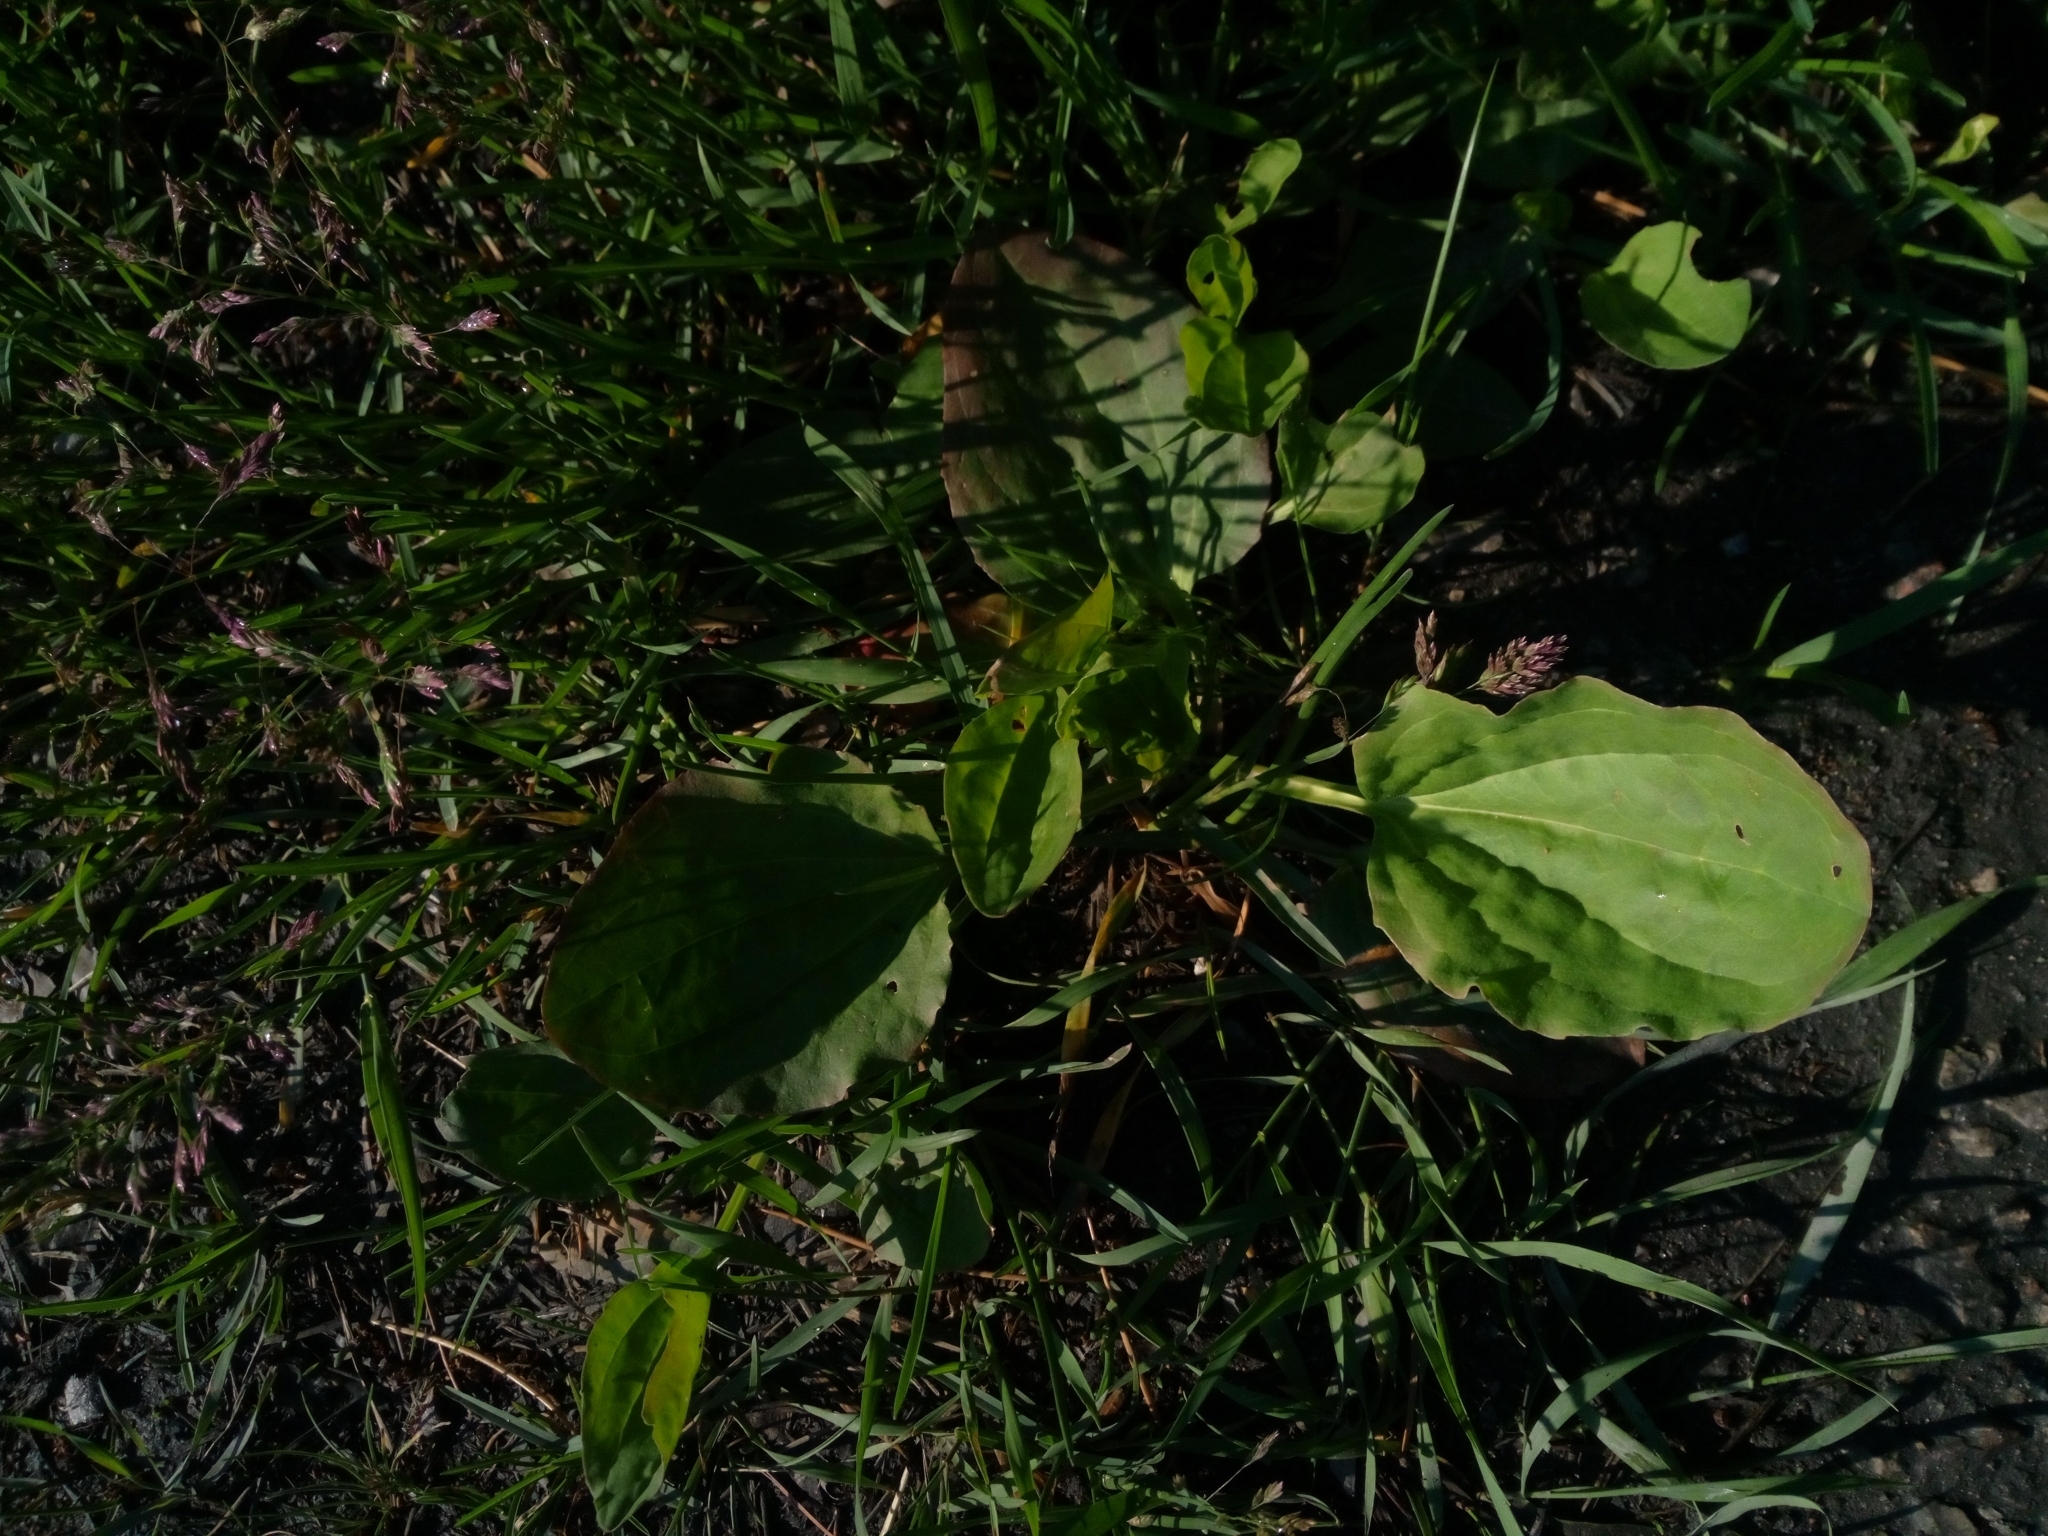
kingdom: Plantae
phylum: Tracheophyta
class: Magnoliopsida
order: Lamiales
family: Plantaginaceae
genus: Plantago
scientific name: Plantago major
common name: Common plantain
